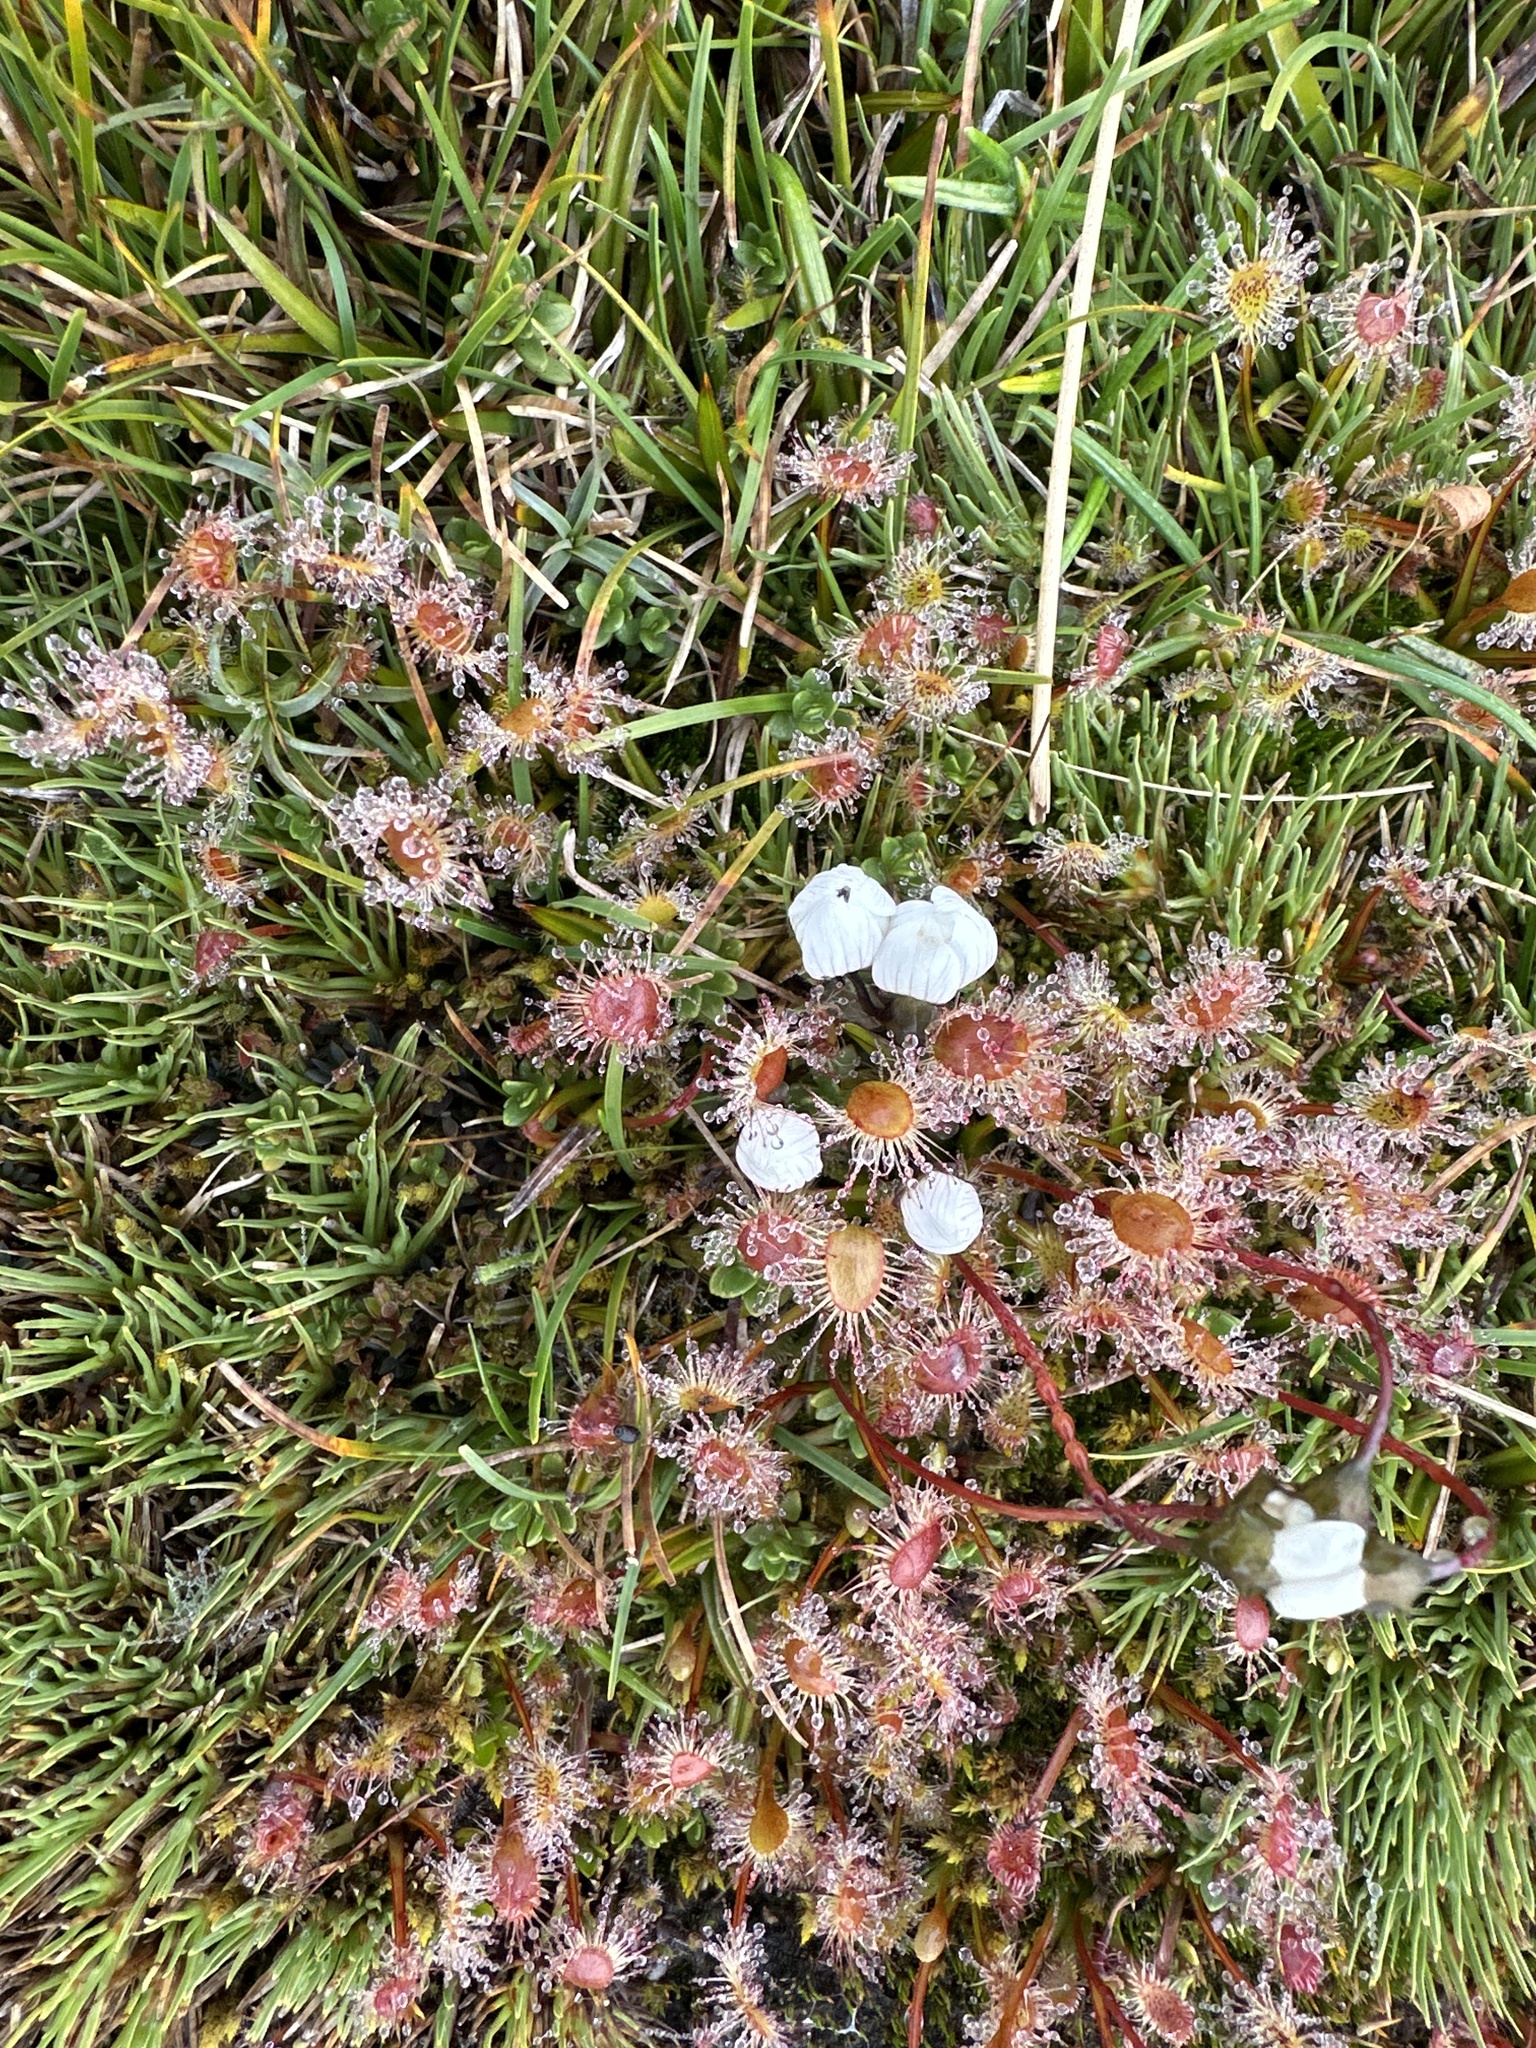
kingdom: Plantae
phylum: Tracheophyta
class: Magnoliopsida
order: Caryophyllales
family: Droseraceae
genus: Drosera
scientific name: Drosera stenopetala
